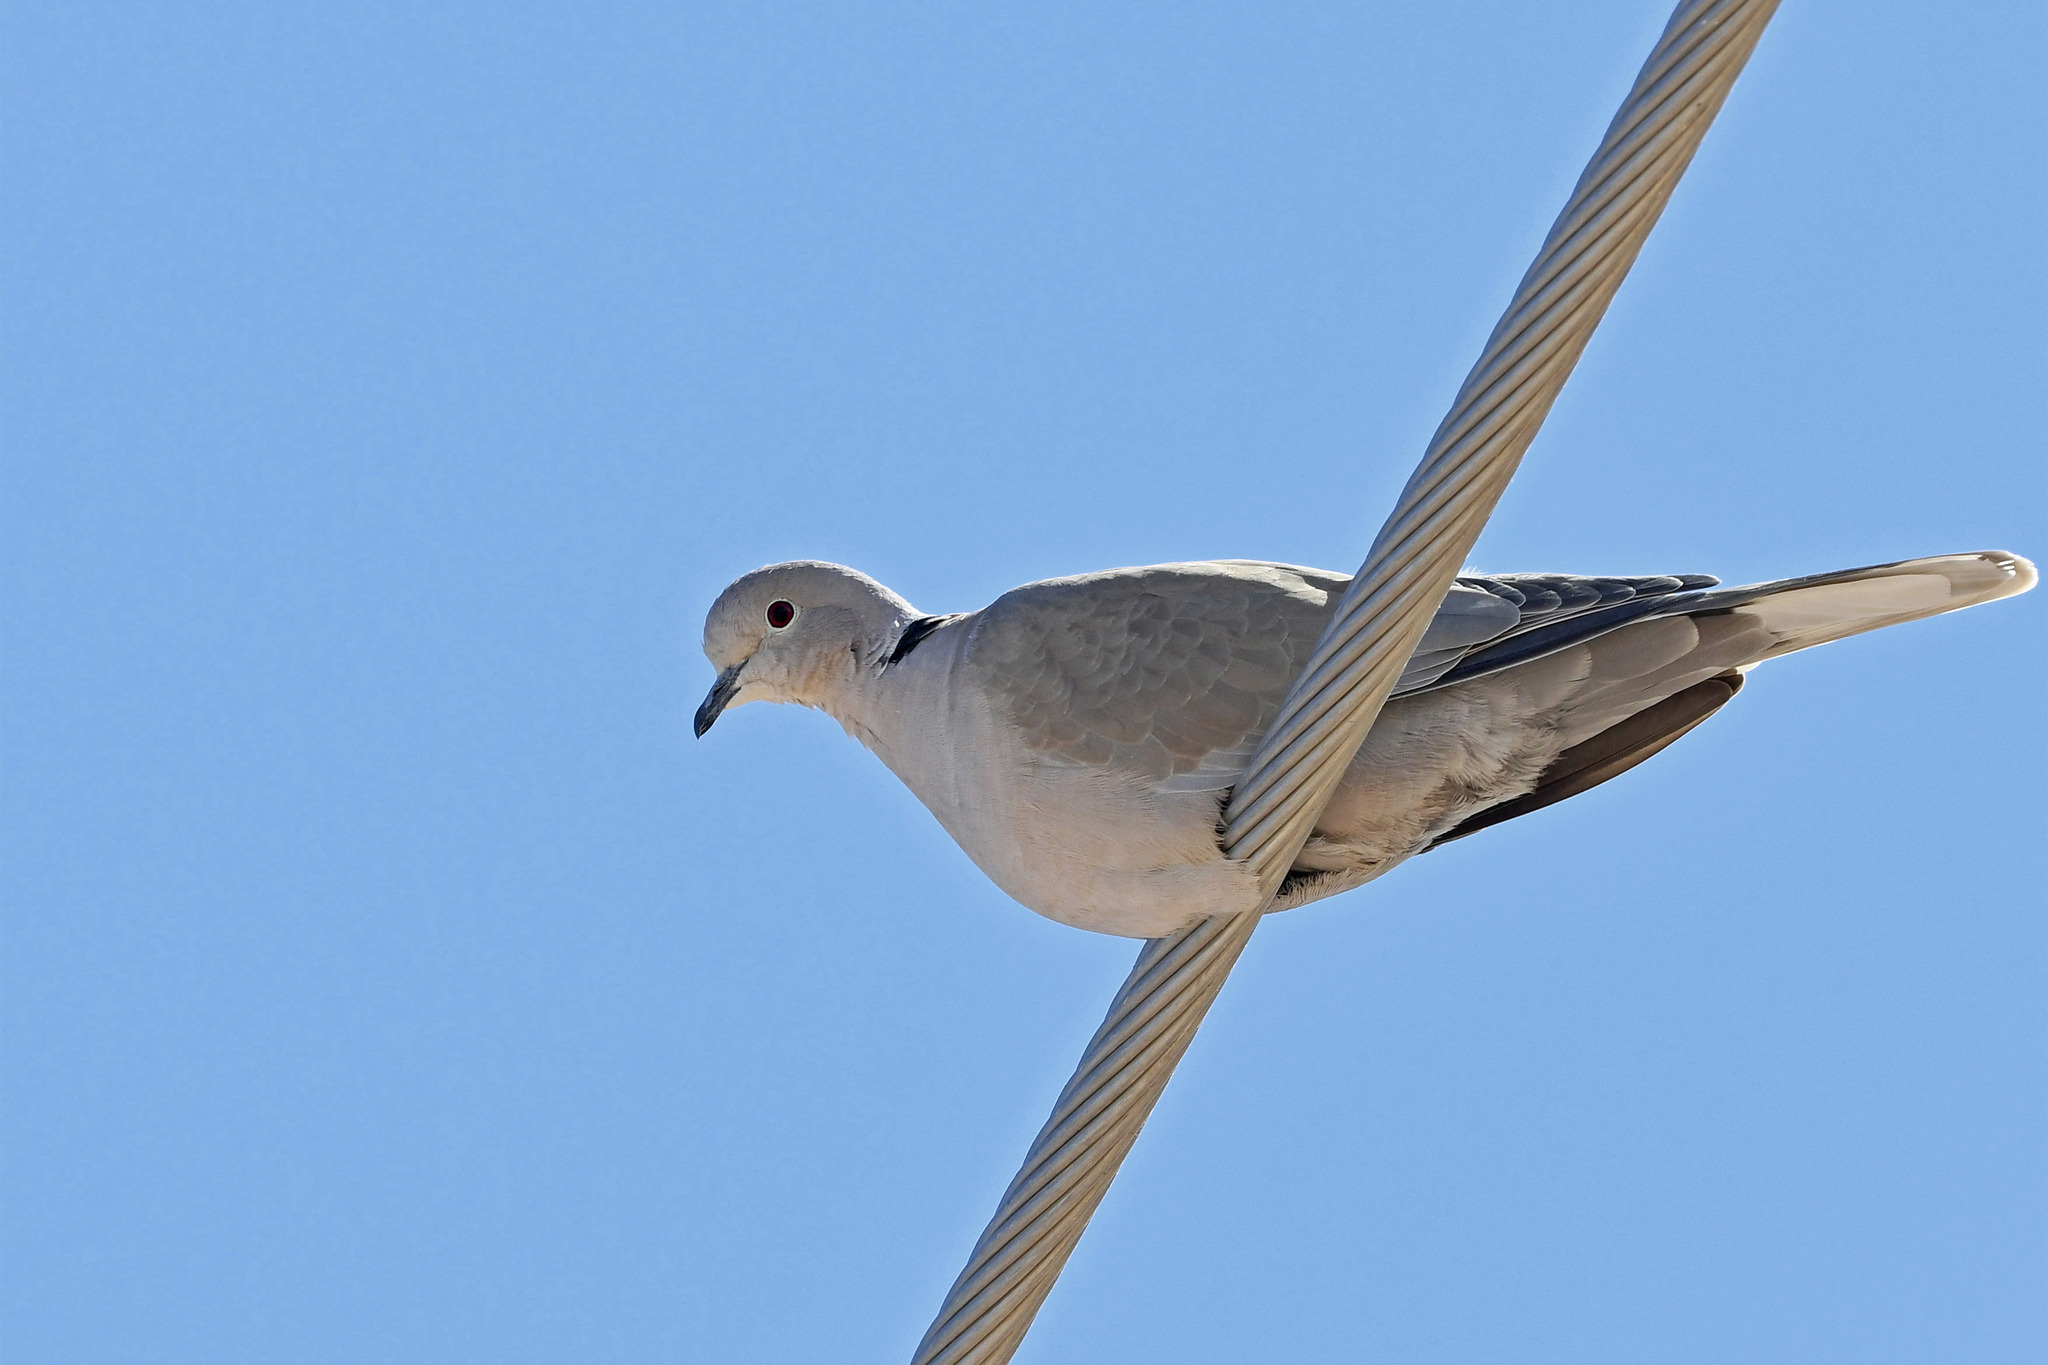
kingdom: Animalia
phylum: Chordata
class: Aves
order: Columbiformes
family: Columbidae
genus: Streptopelia
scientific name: Streptopelia decaocto
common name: Eurasian collared dove
